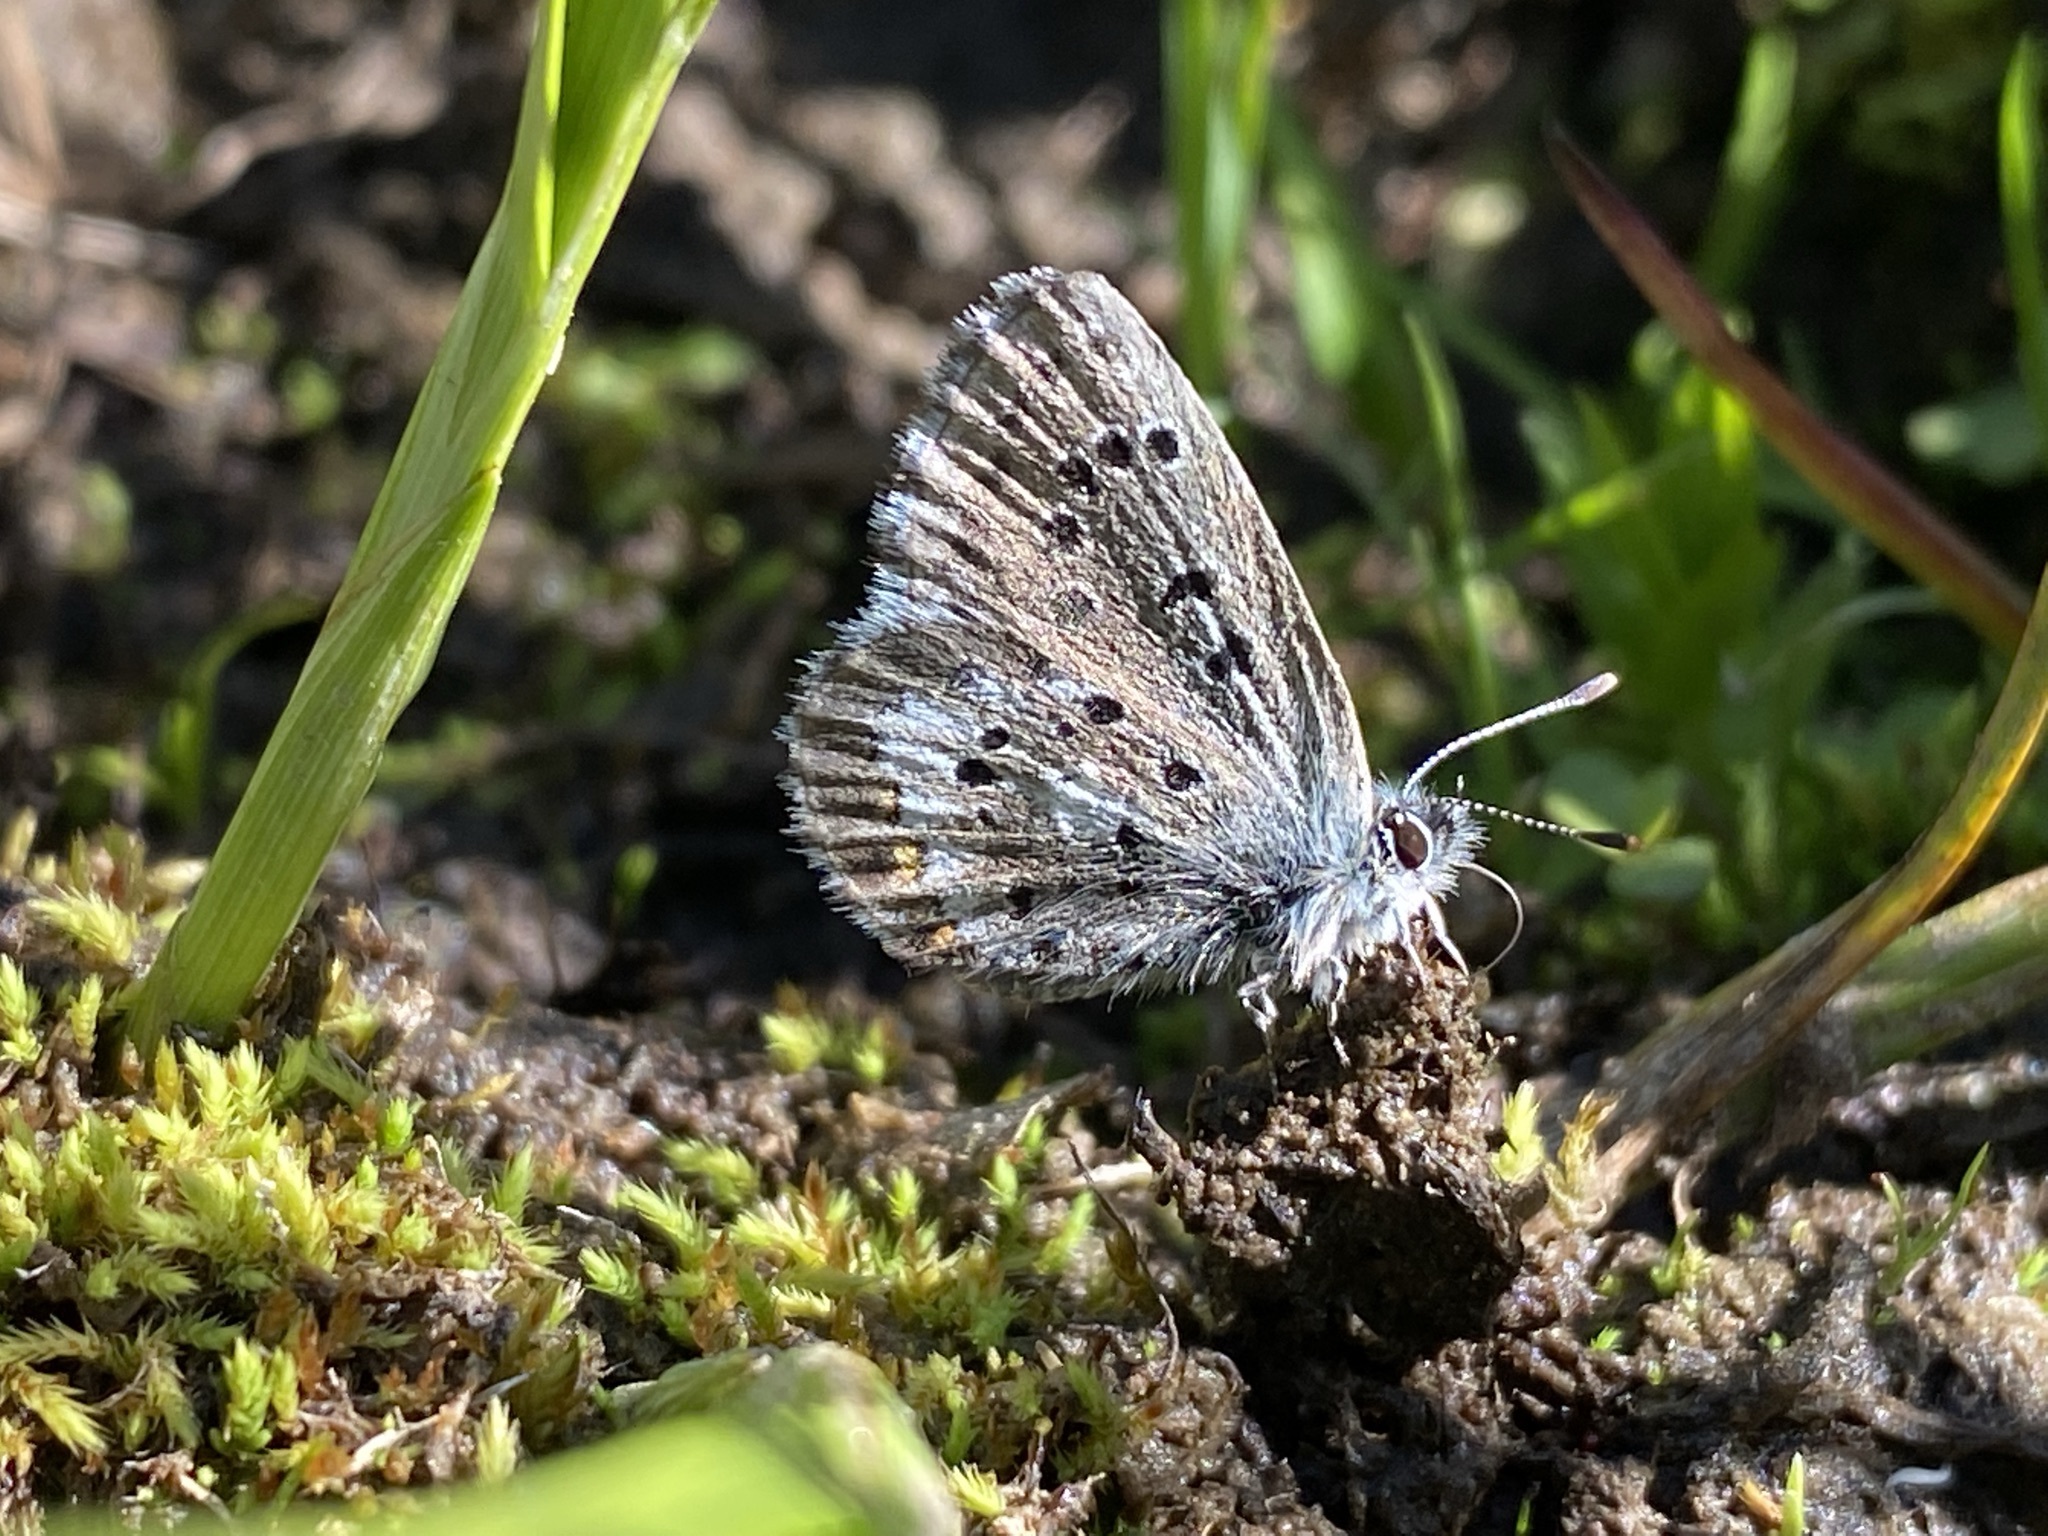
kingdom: Animalia
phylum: Arthropoda
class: Insecta
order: Lepidoptera
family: Lycaenidae
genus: Glaucopsyche
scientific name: Glaucopsyche piasus
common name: Arrowhead blue
